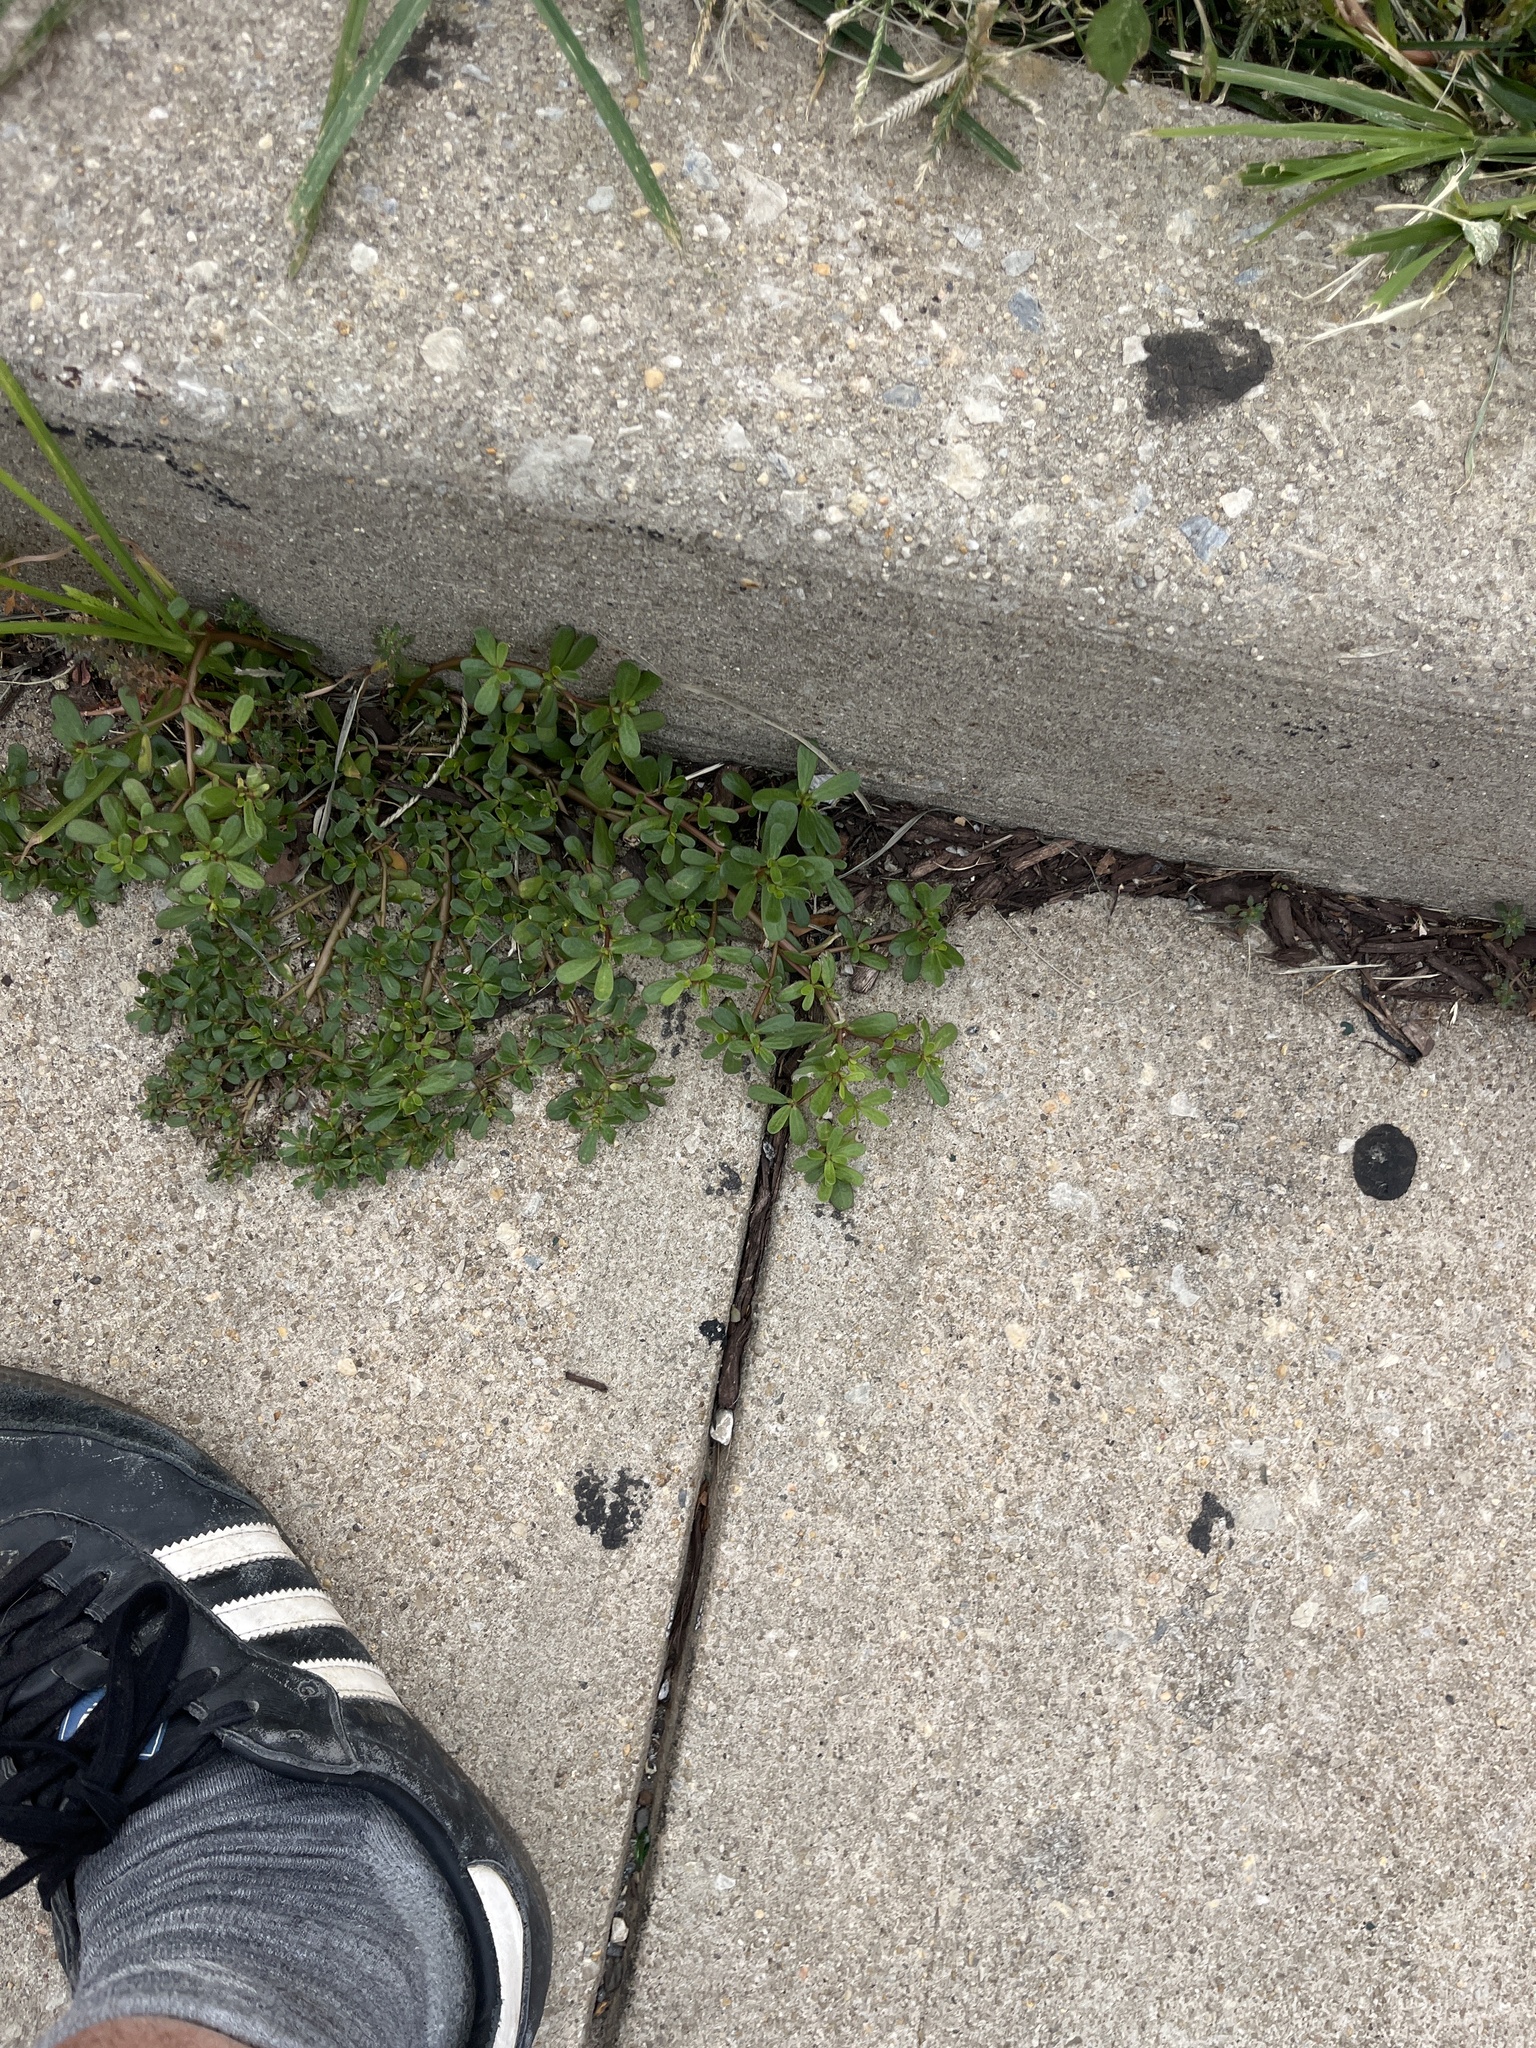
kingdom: Plantae
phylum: Tracheophyta
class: Magnoliopsida
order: Caryophyllales
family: Portulacaceae
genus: Portulaca
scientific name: Portulaca oleracea
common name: Common purslane
